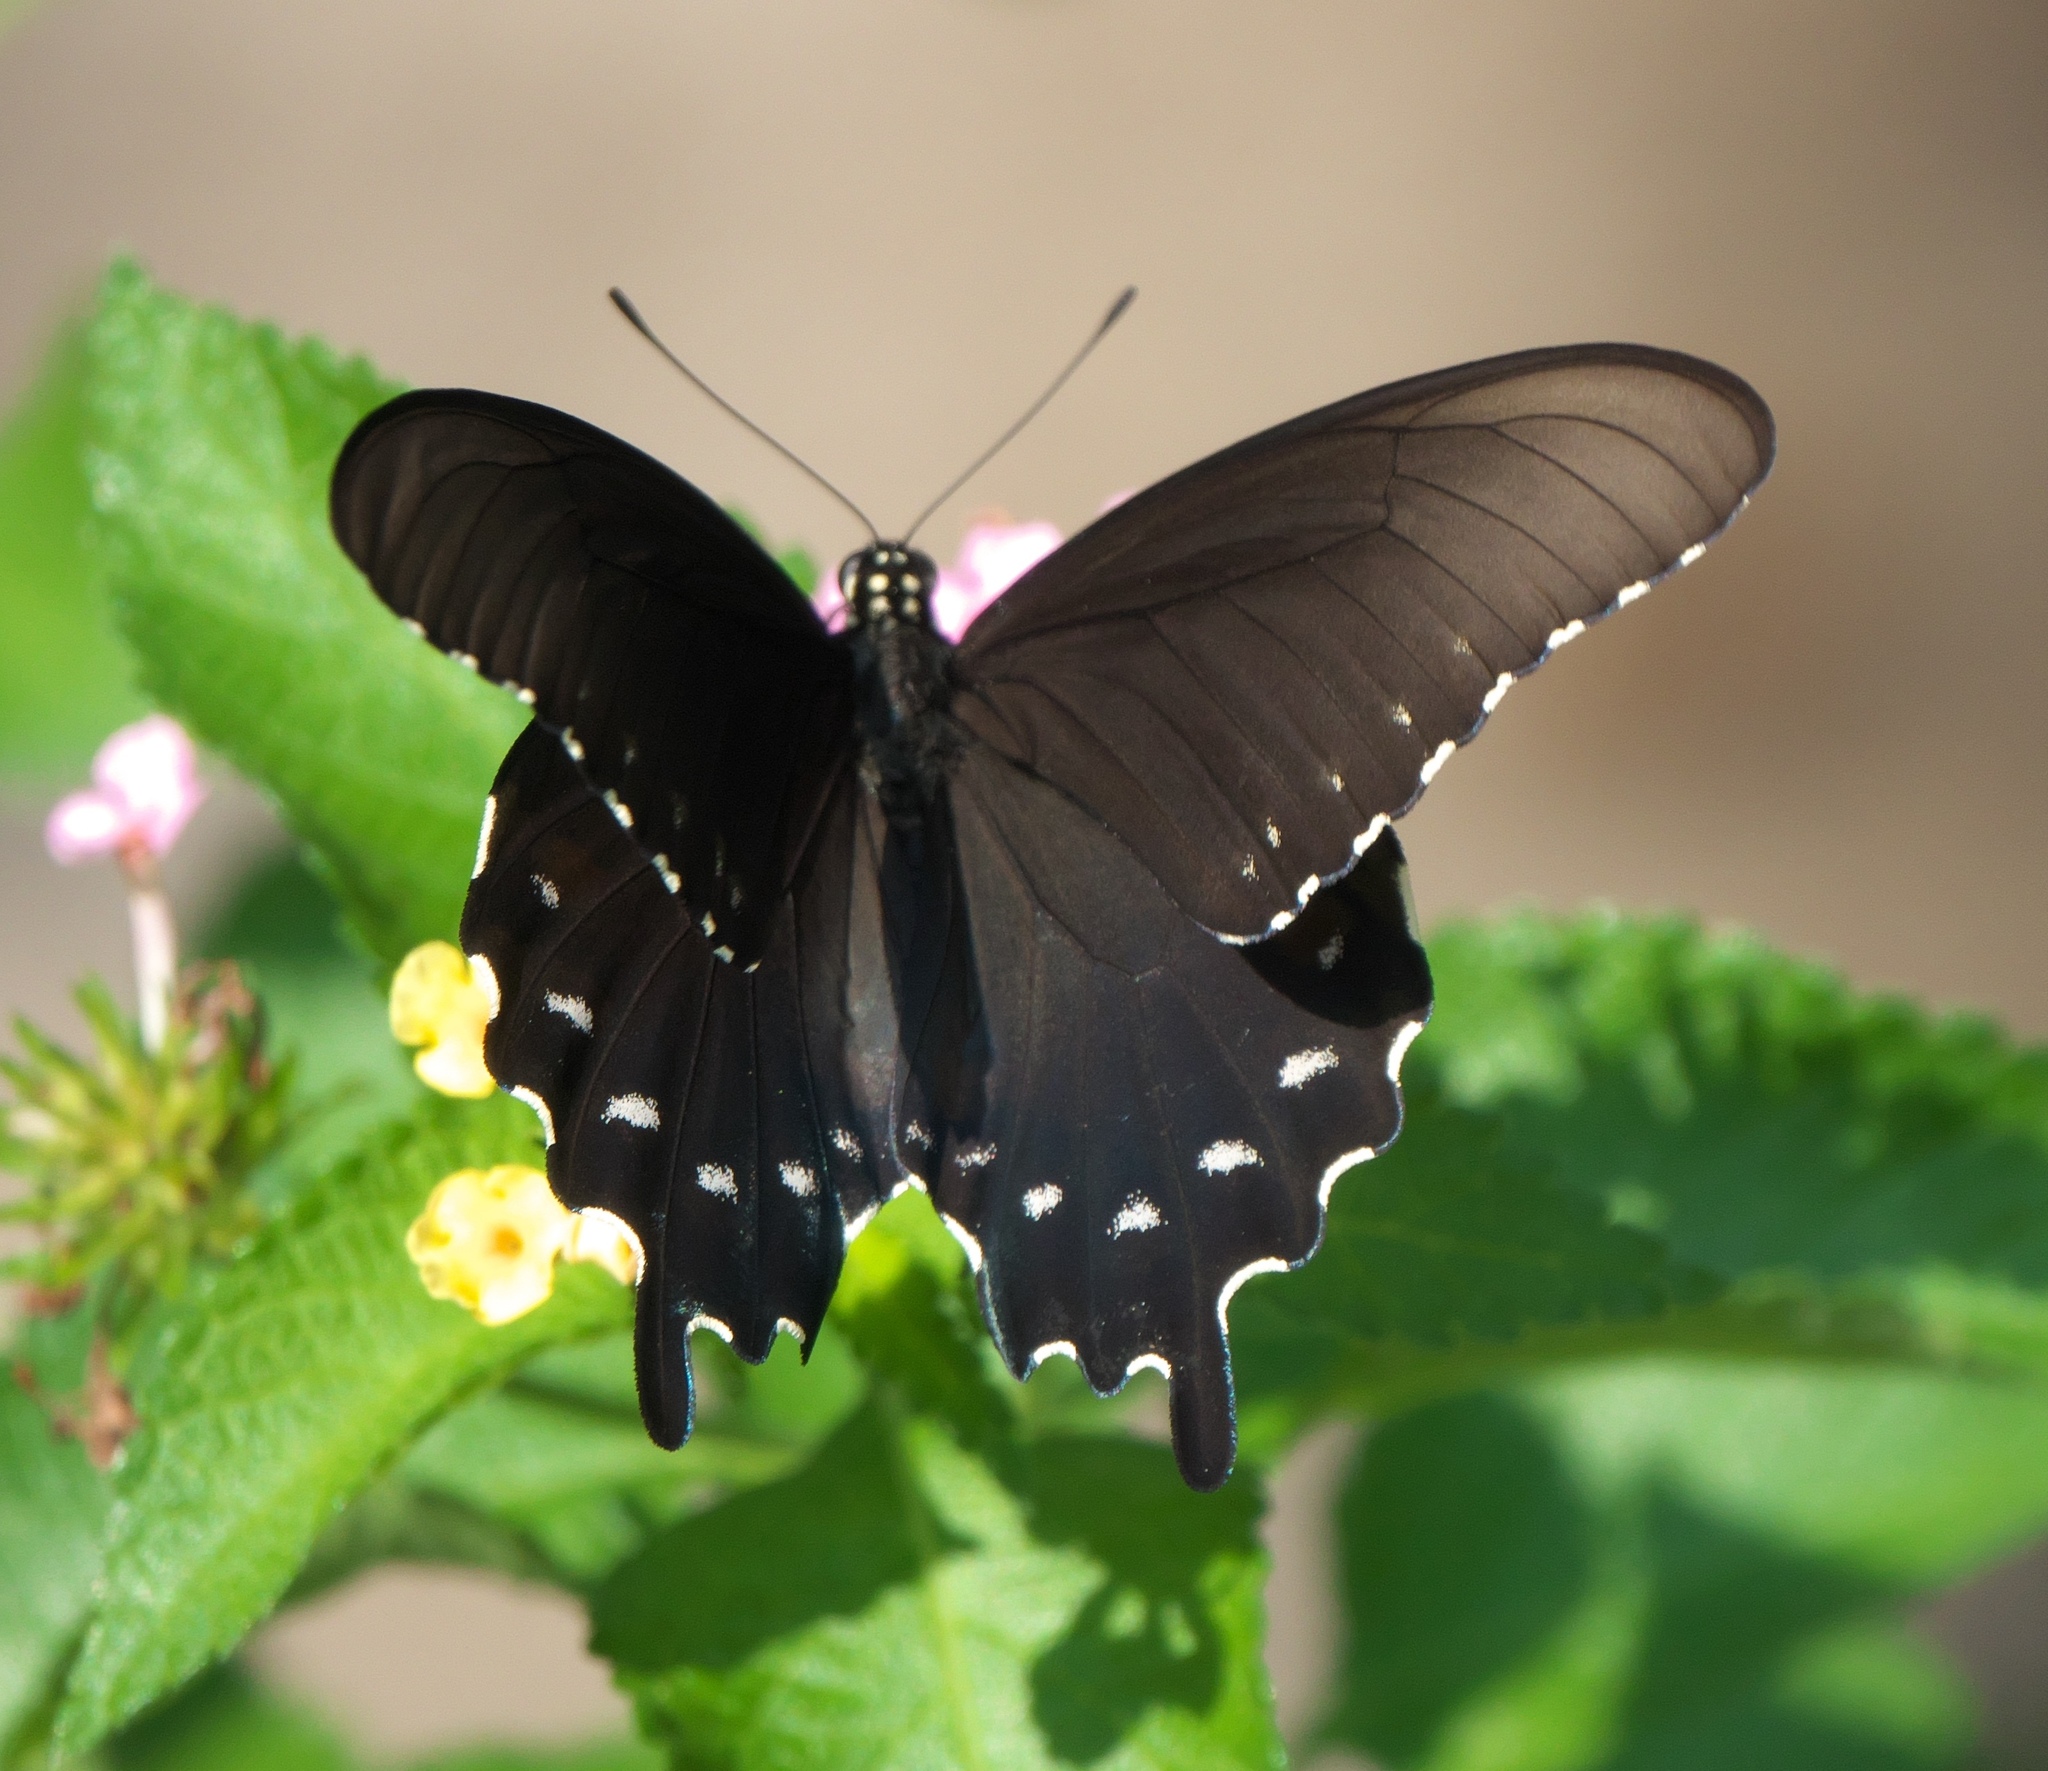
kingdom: Animalia
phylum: Arthropoda
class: Insecta
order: Lepidoptera
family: Papilionidae
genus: Battus
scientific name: Battus philenor
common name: Pipevine swallowtail
